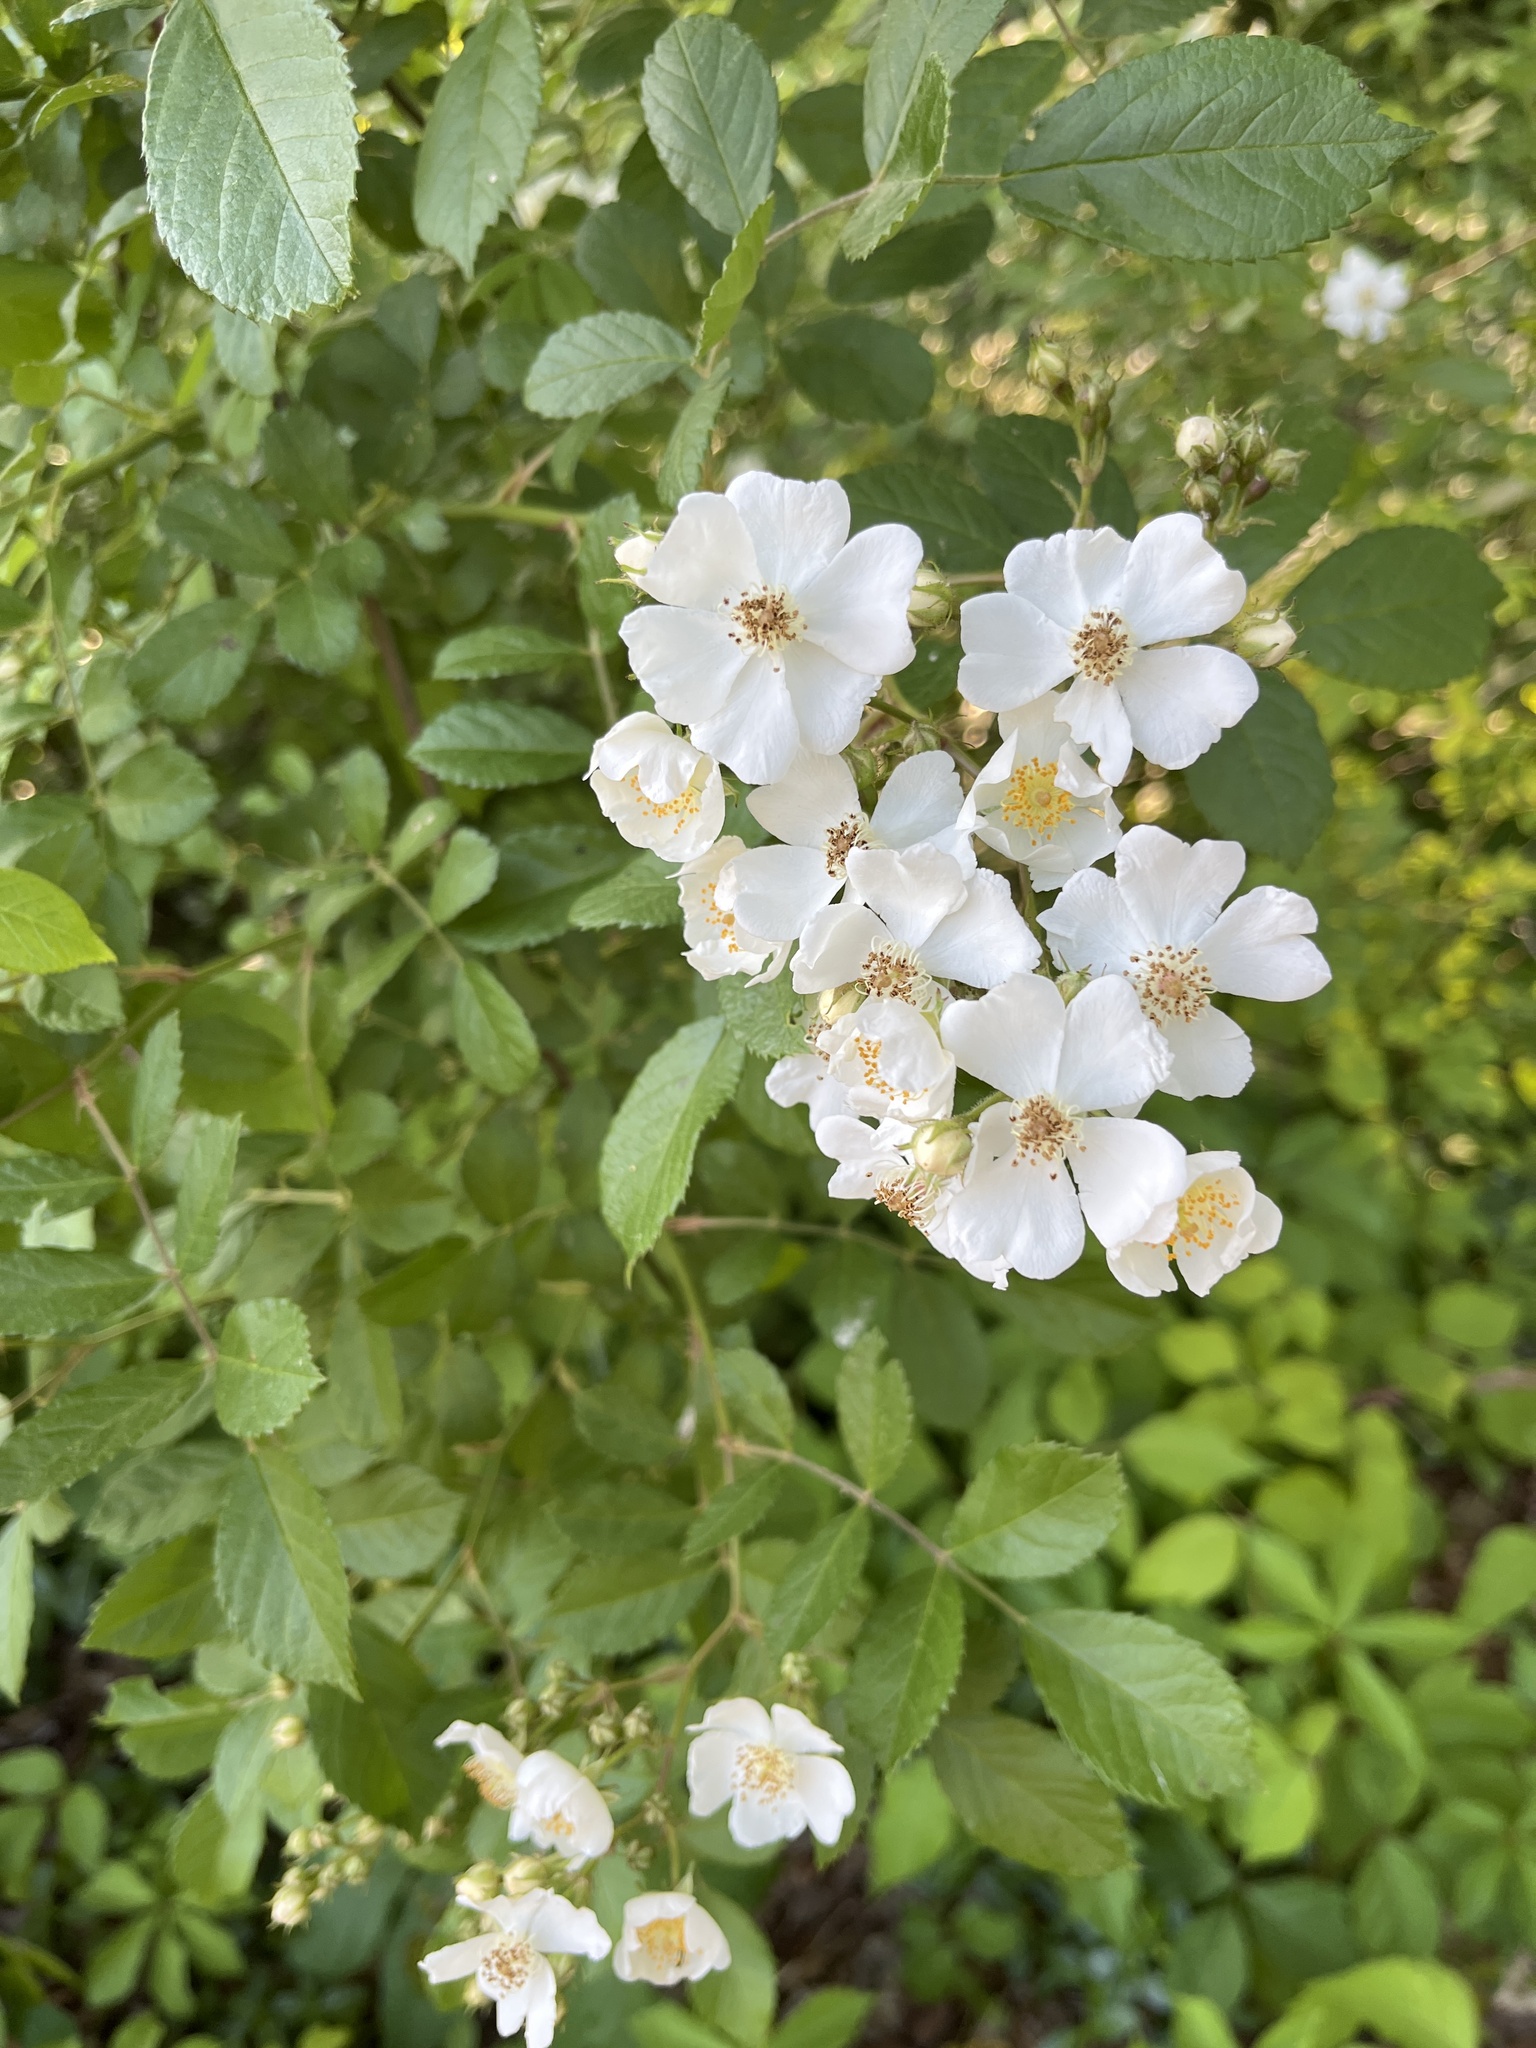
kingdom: Plantae
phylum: Tracheophyta
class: Magnoliopsida
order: Rosales
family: Rosaceae
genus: Rosa
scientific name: Rosa multiflora
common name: Multiflora rose
